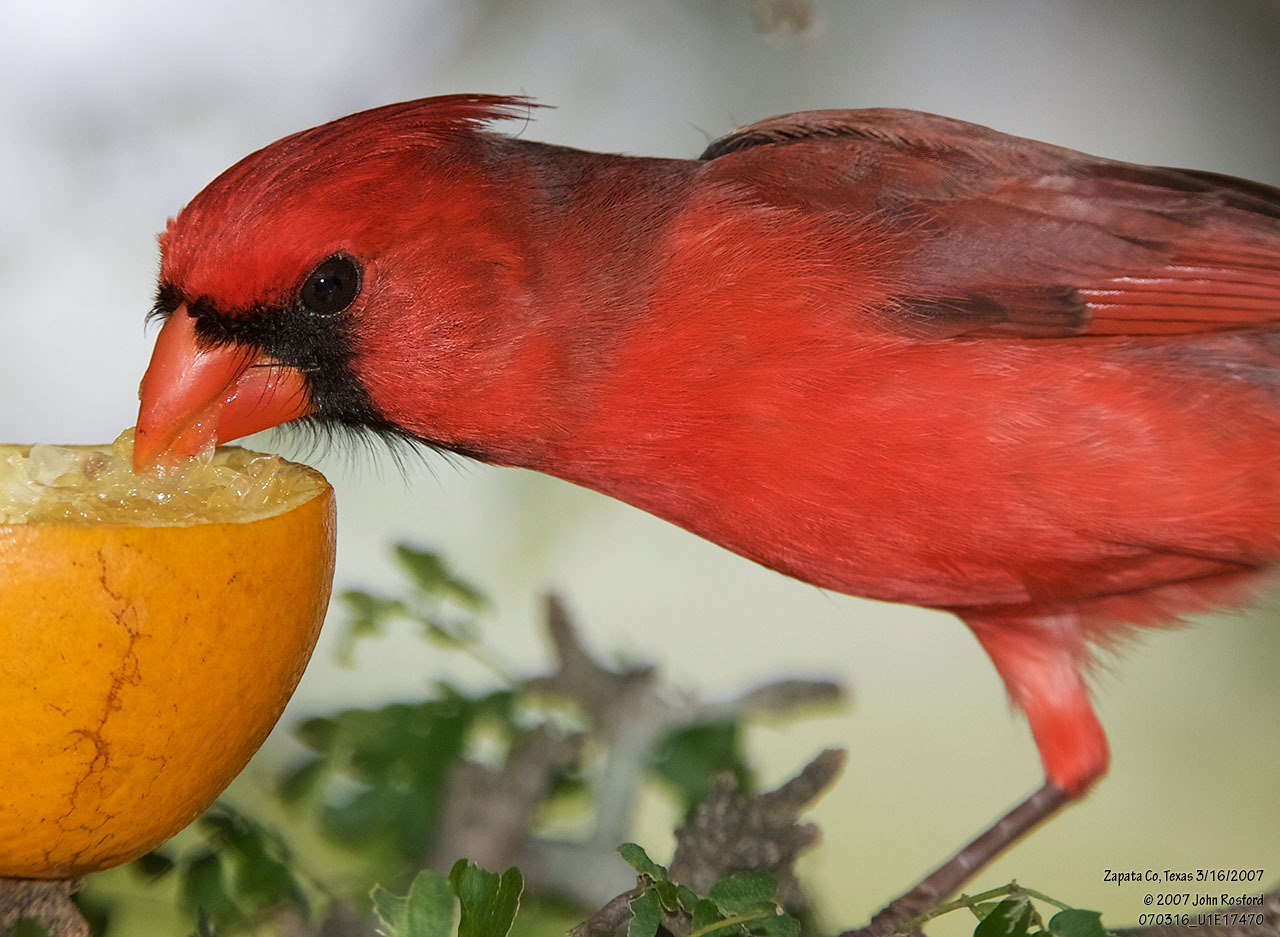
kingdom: Animalia
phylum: Chordata
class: Aves
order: Passeriformes
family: Cardinalidae
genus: Cardinalis
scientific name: Cardinalis cardinalis
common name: Northern cardinal
